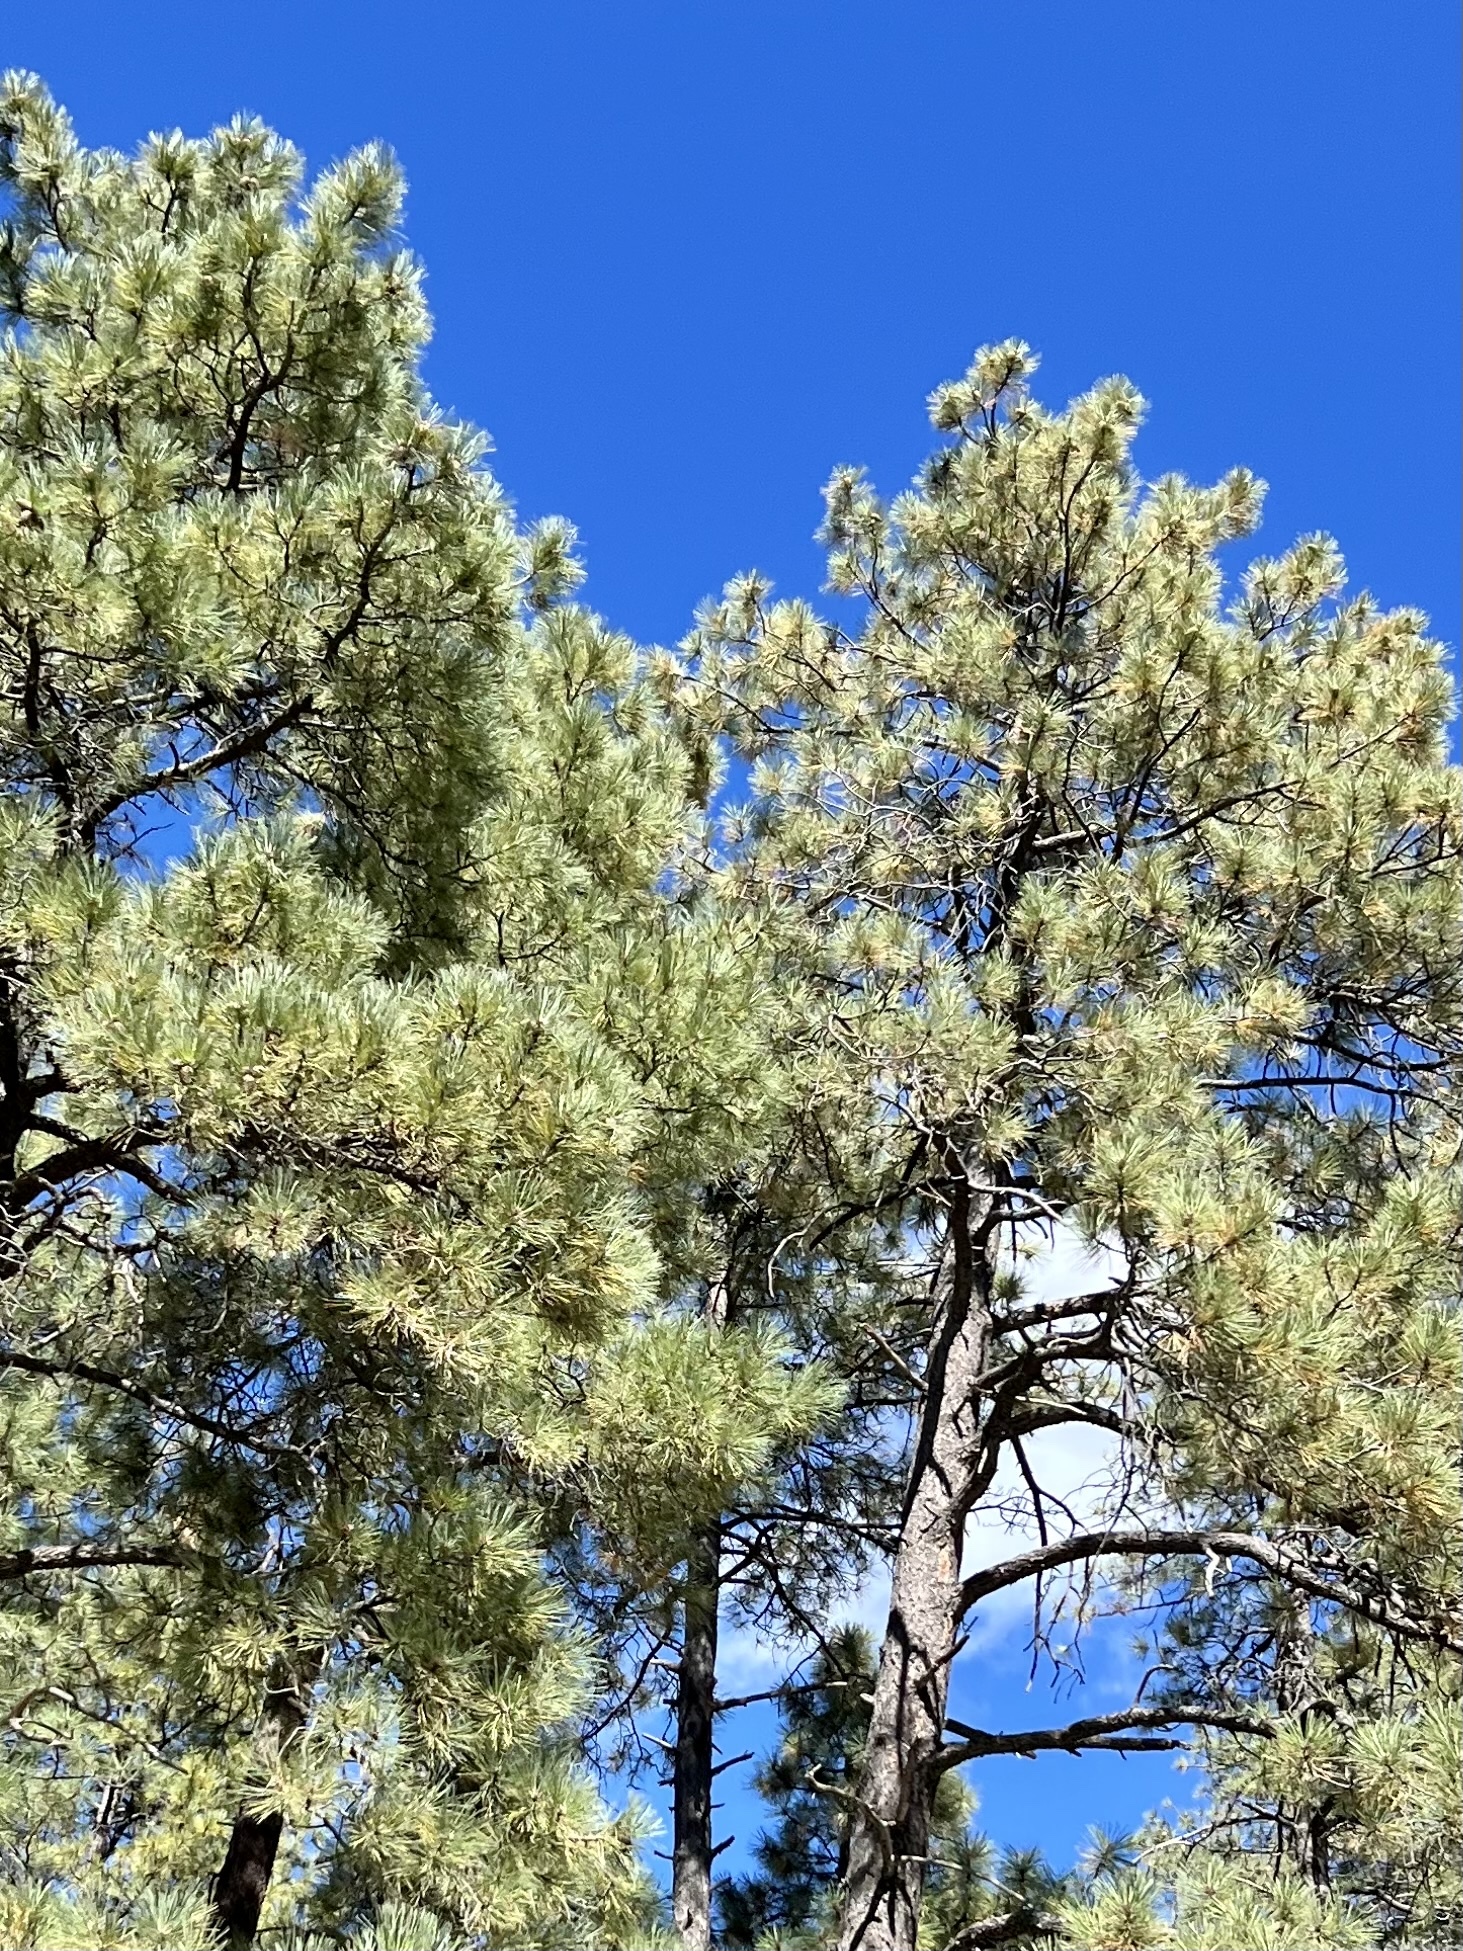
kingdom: Plantae
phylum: Tracheophyta
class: Pinopsida
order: Pinales
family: Pinaceae
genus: Pinus
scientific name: Pinus ponderosa
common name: Western yellow-pine
